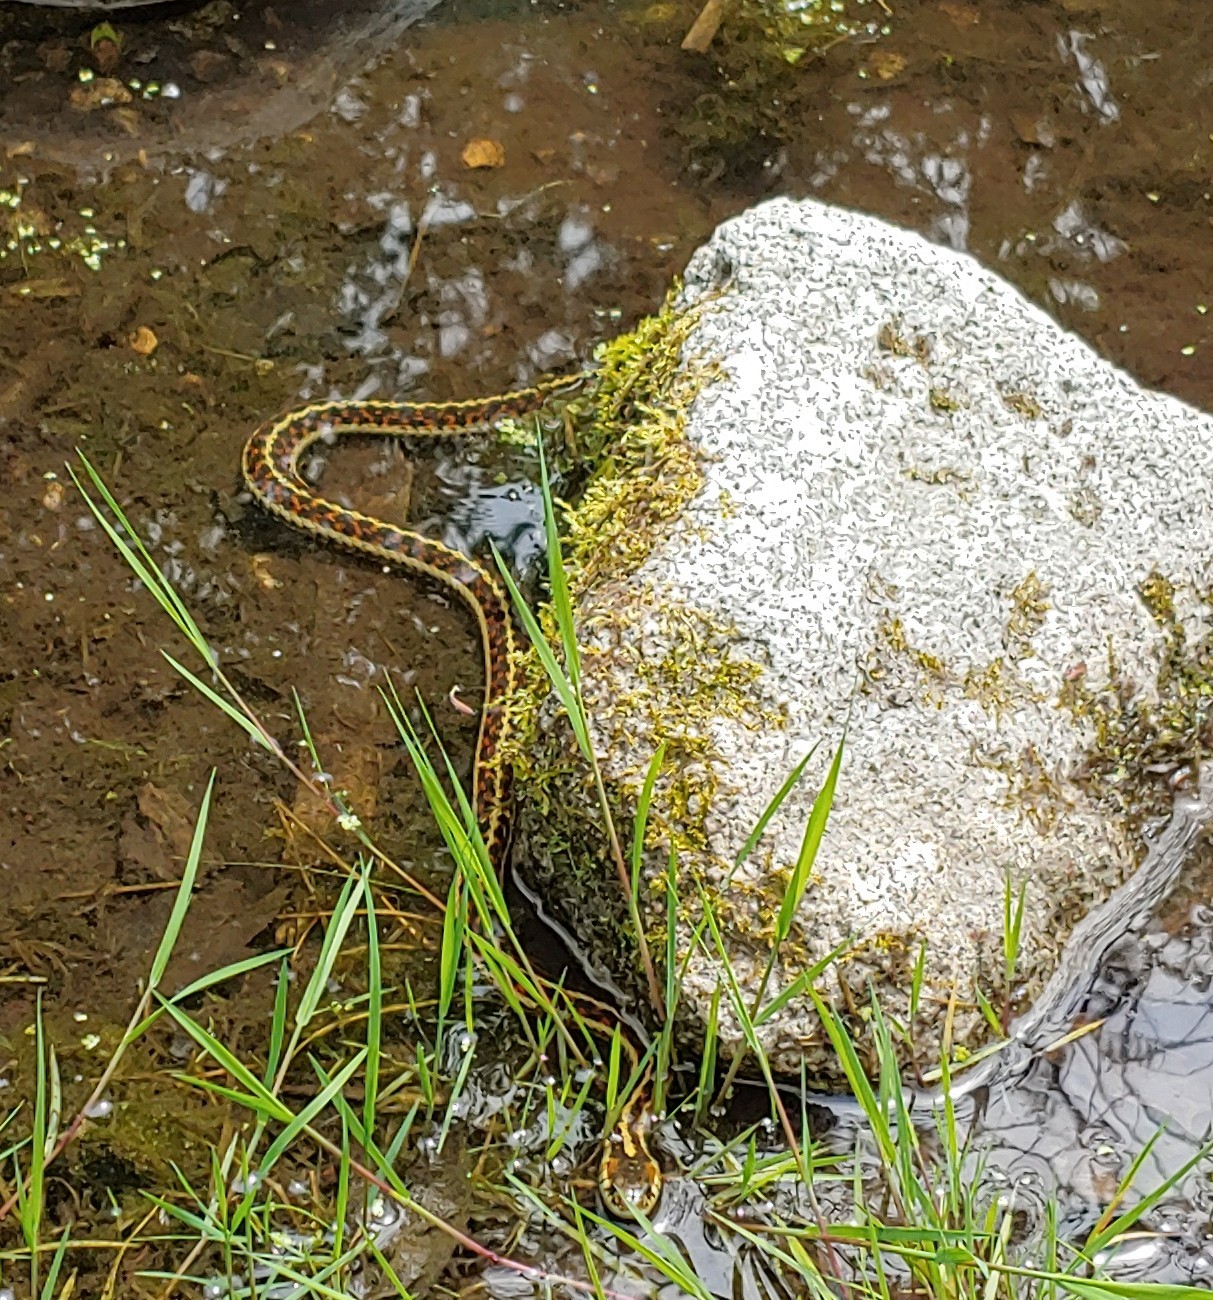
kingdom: Animalia
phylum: Chordata
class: Squamata
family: Colubridae
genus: Thamnophis
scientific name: Thamnophis sirtalis
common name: Common garter snake
